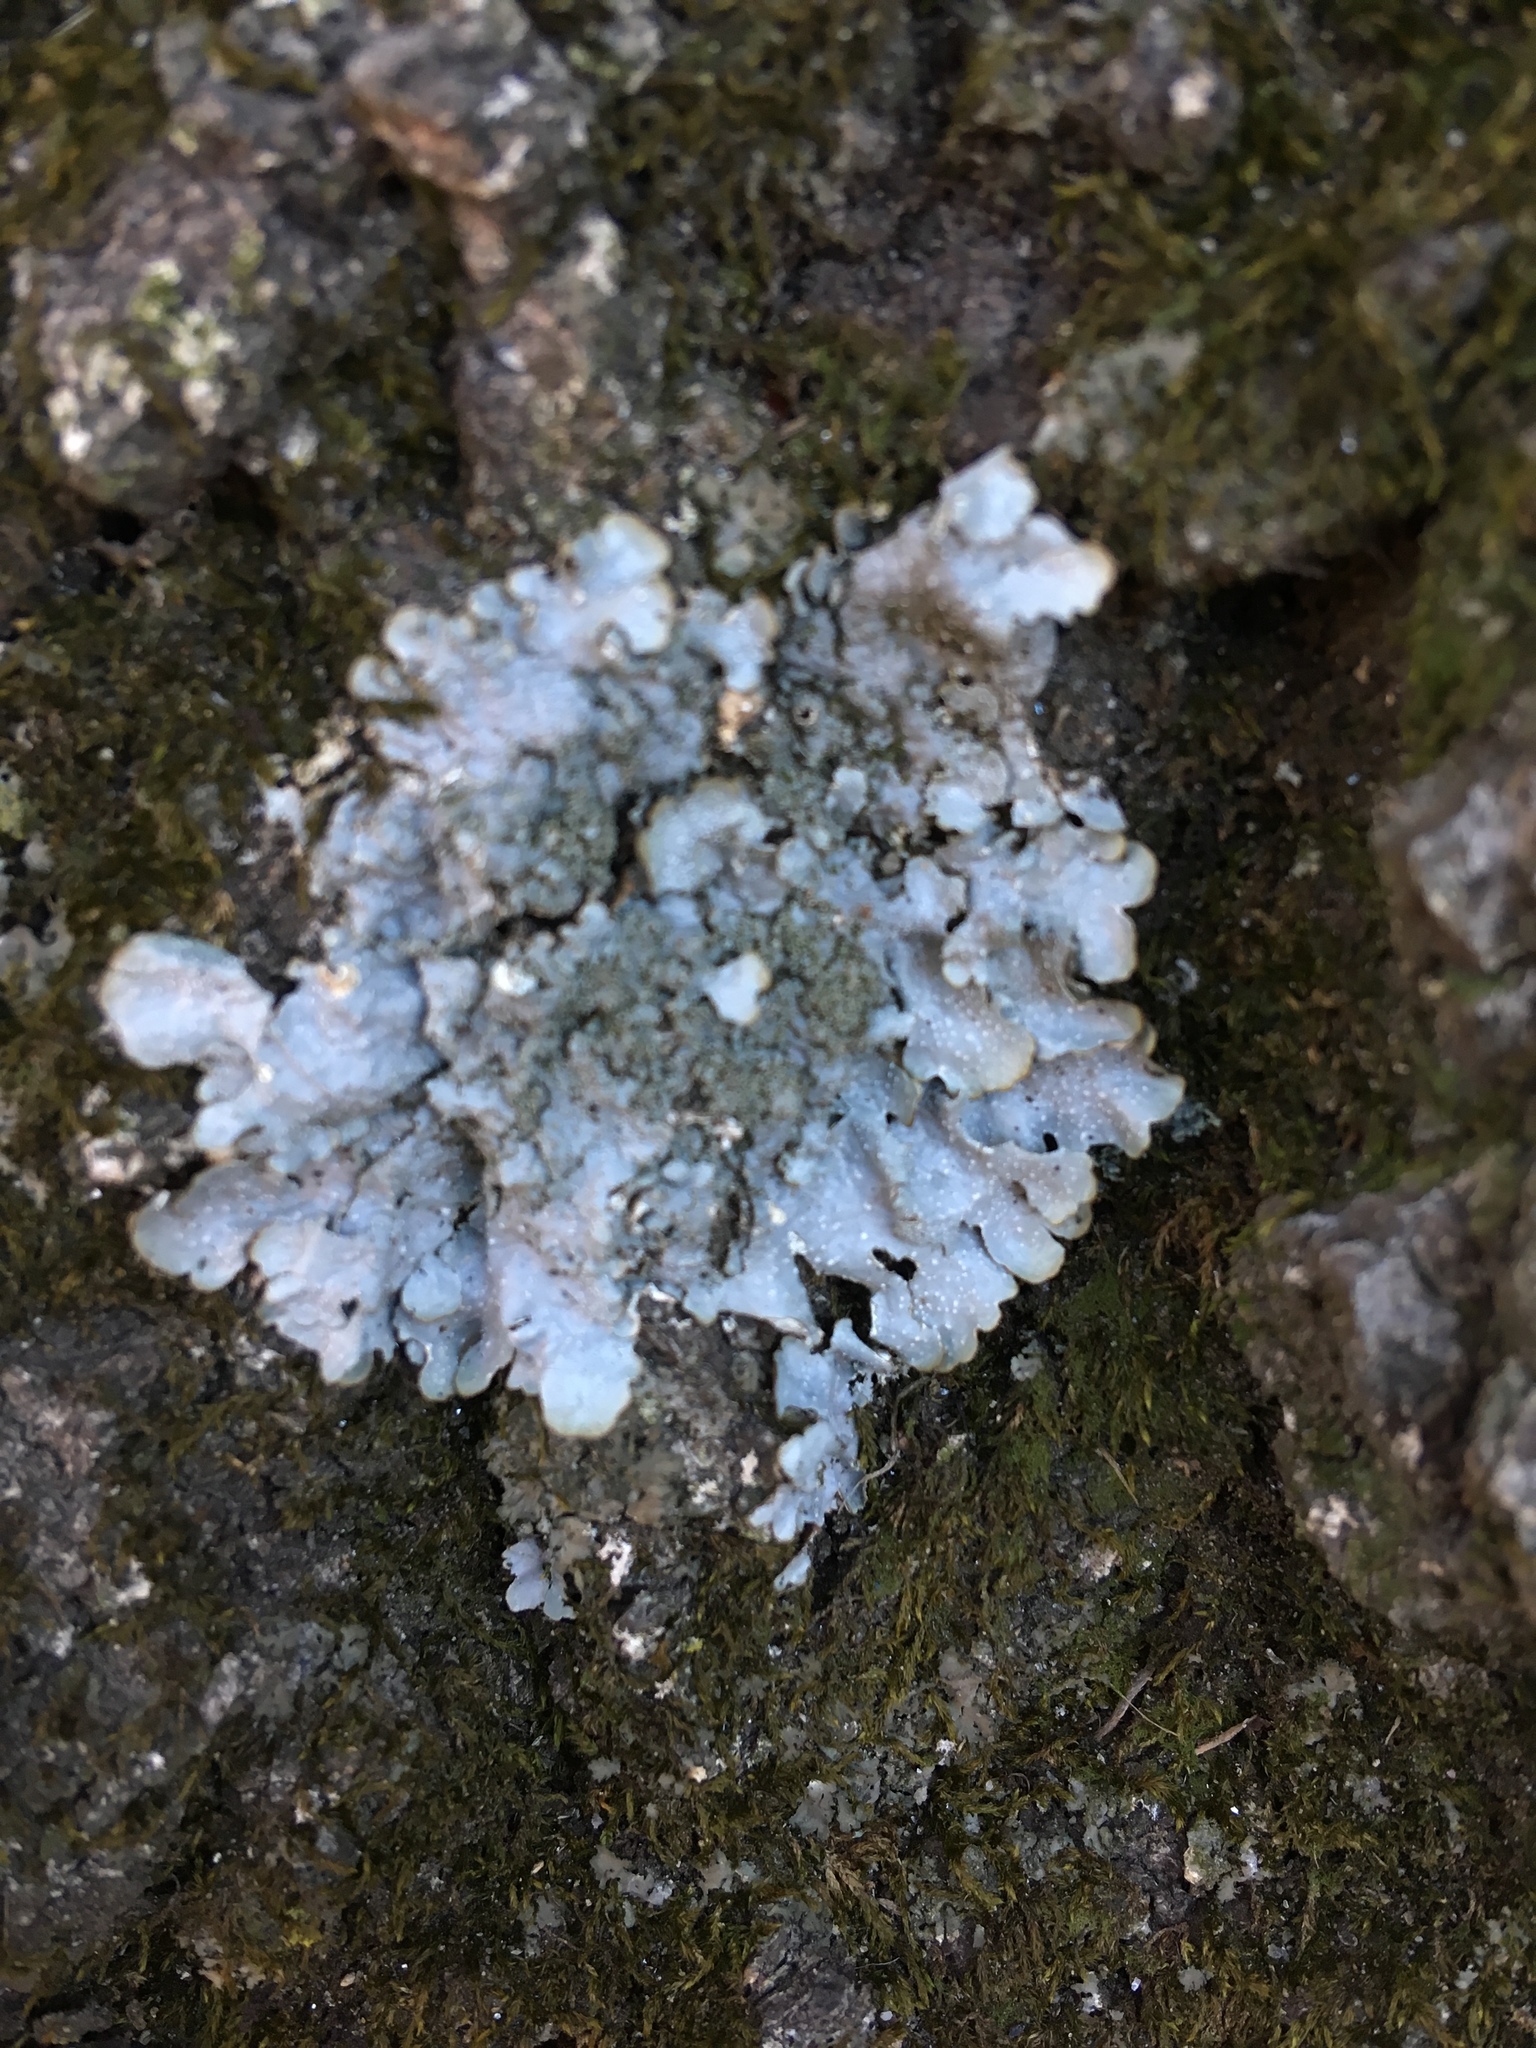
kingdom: Fungi
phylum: Ascomycota
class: Lecanoromycetes
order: Lecanorales
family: Parmeliaceae
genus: Punctelia
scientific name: Punctelia rudecta
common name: Rough speckled shield lichen
